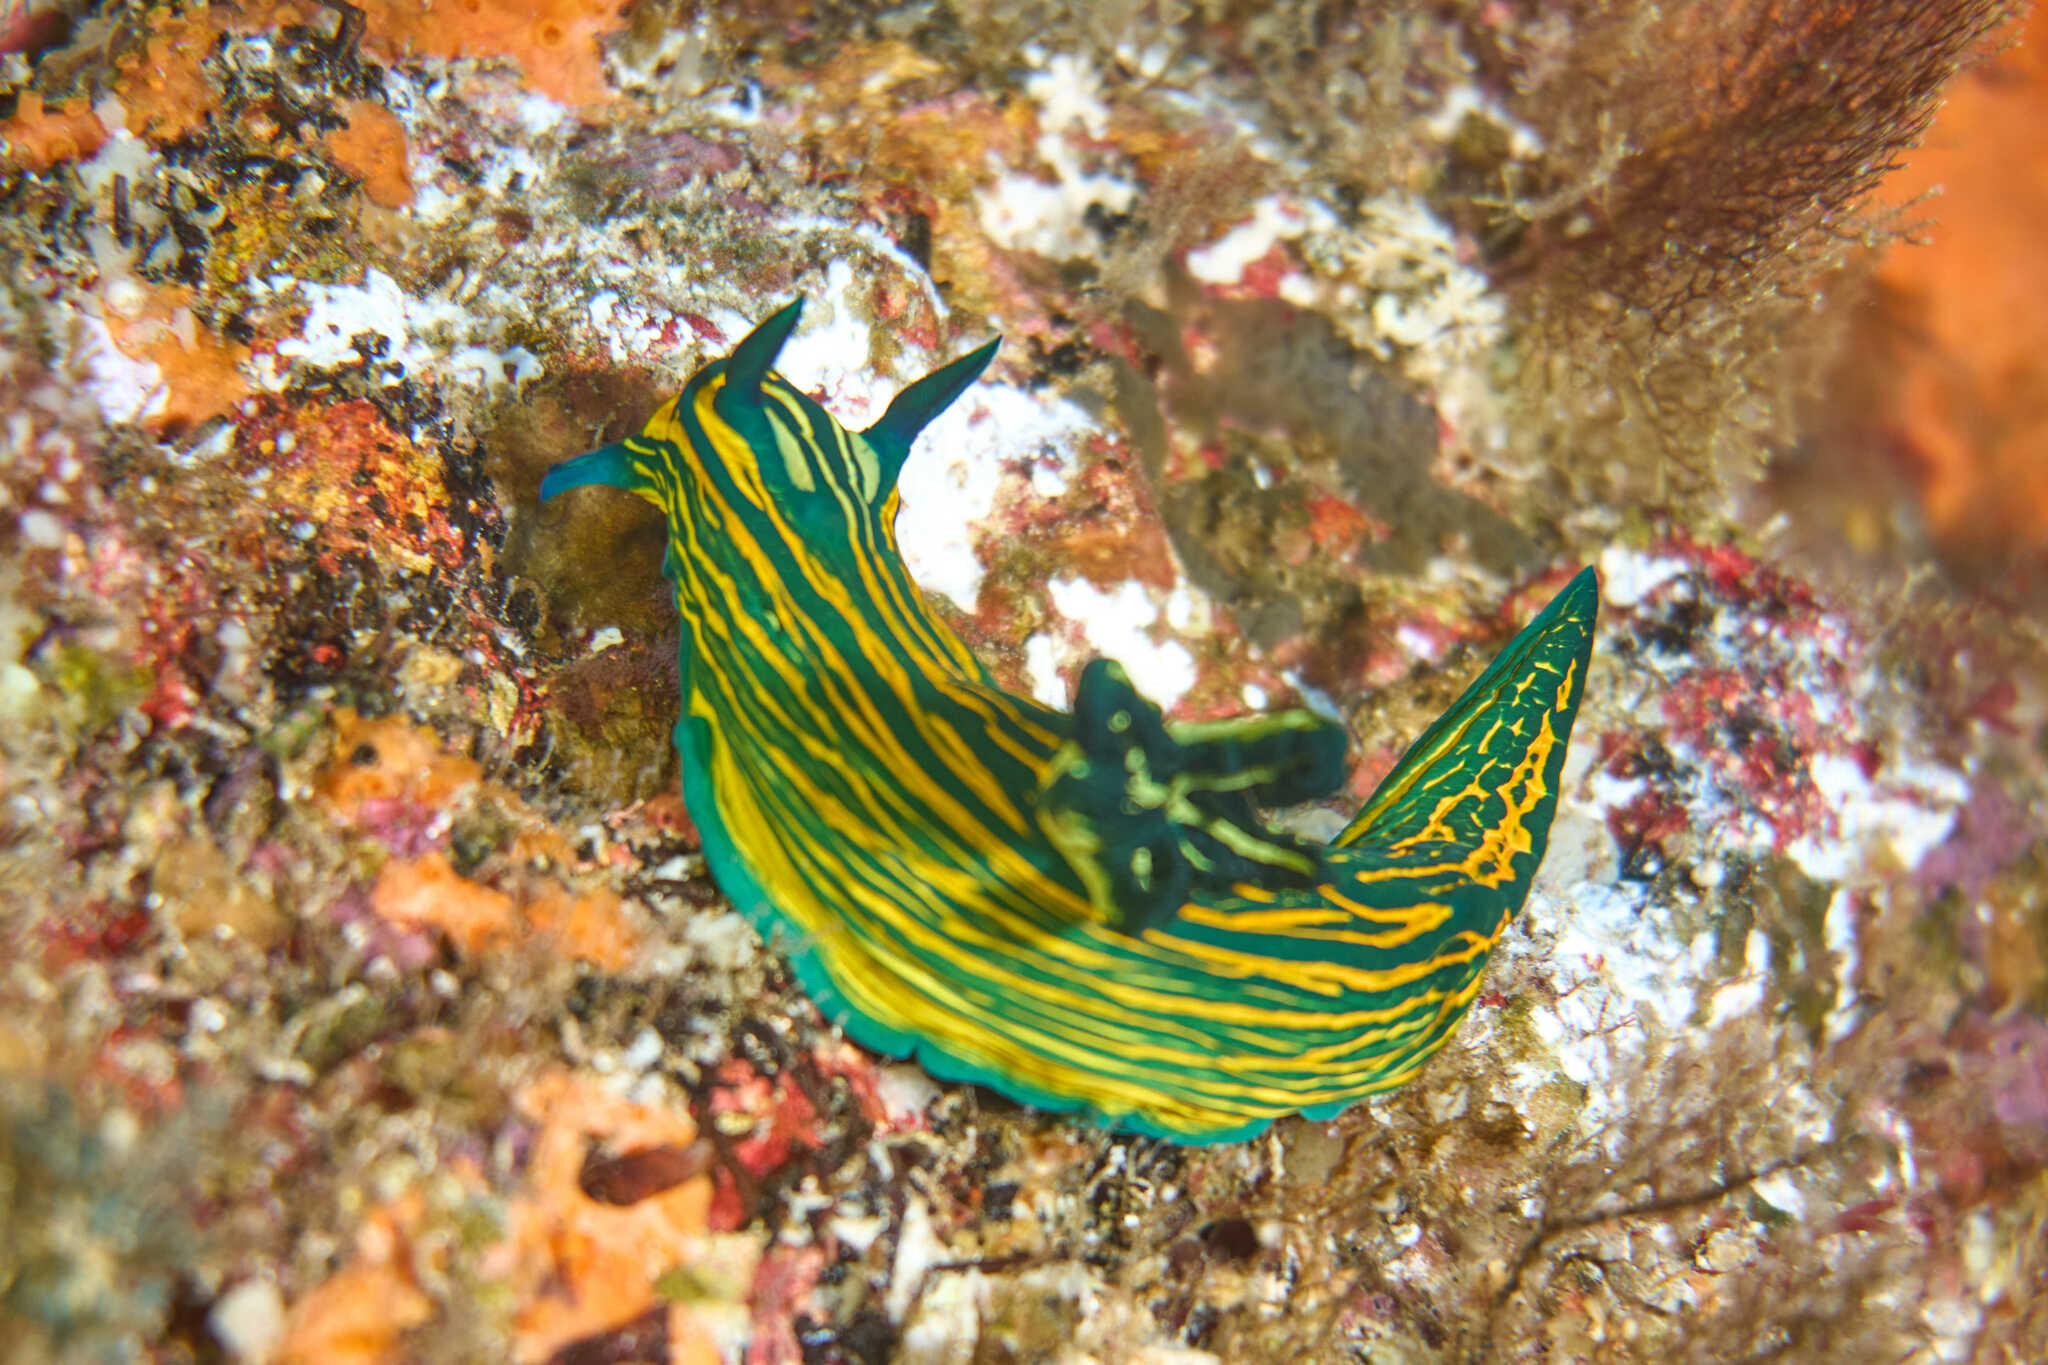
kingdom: Animalia
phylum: Mollusca
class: Gastropoda
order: Nudibranchia
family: Polyceridae
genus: Tyrannodoris
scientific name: Tyrannodoris luteolineata
